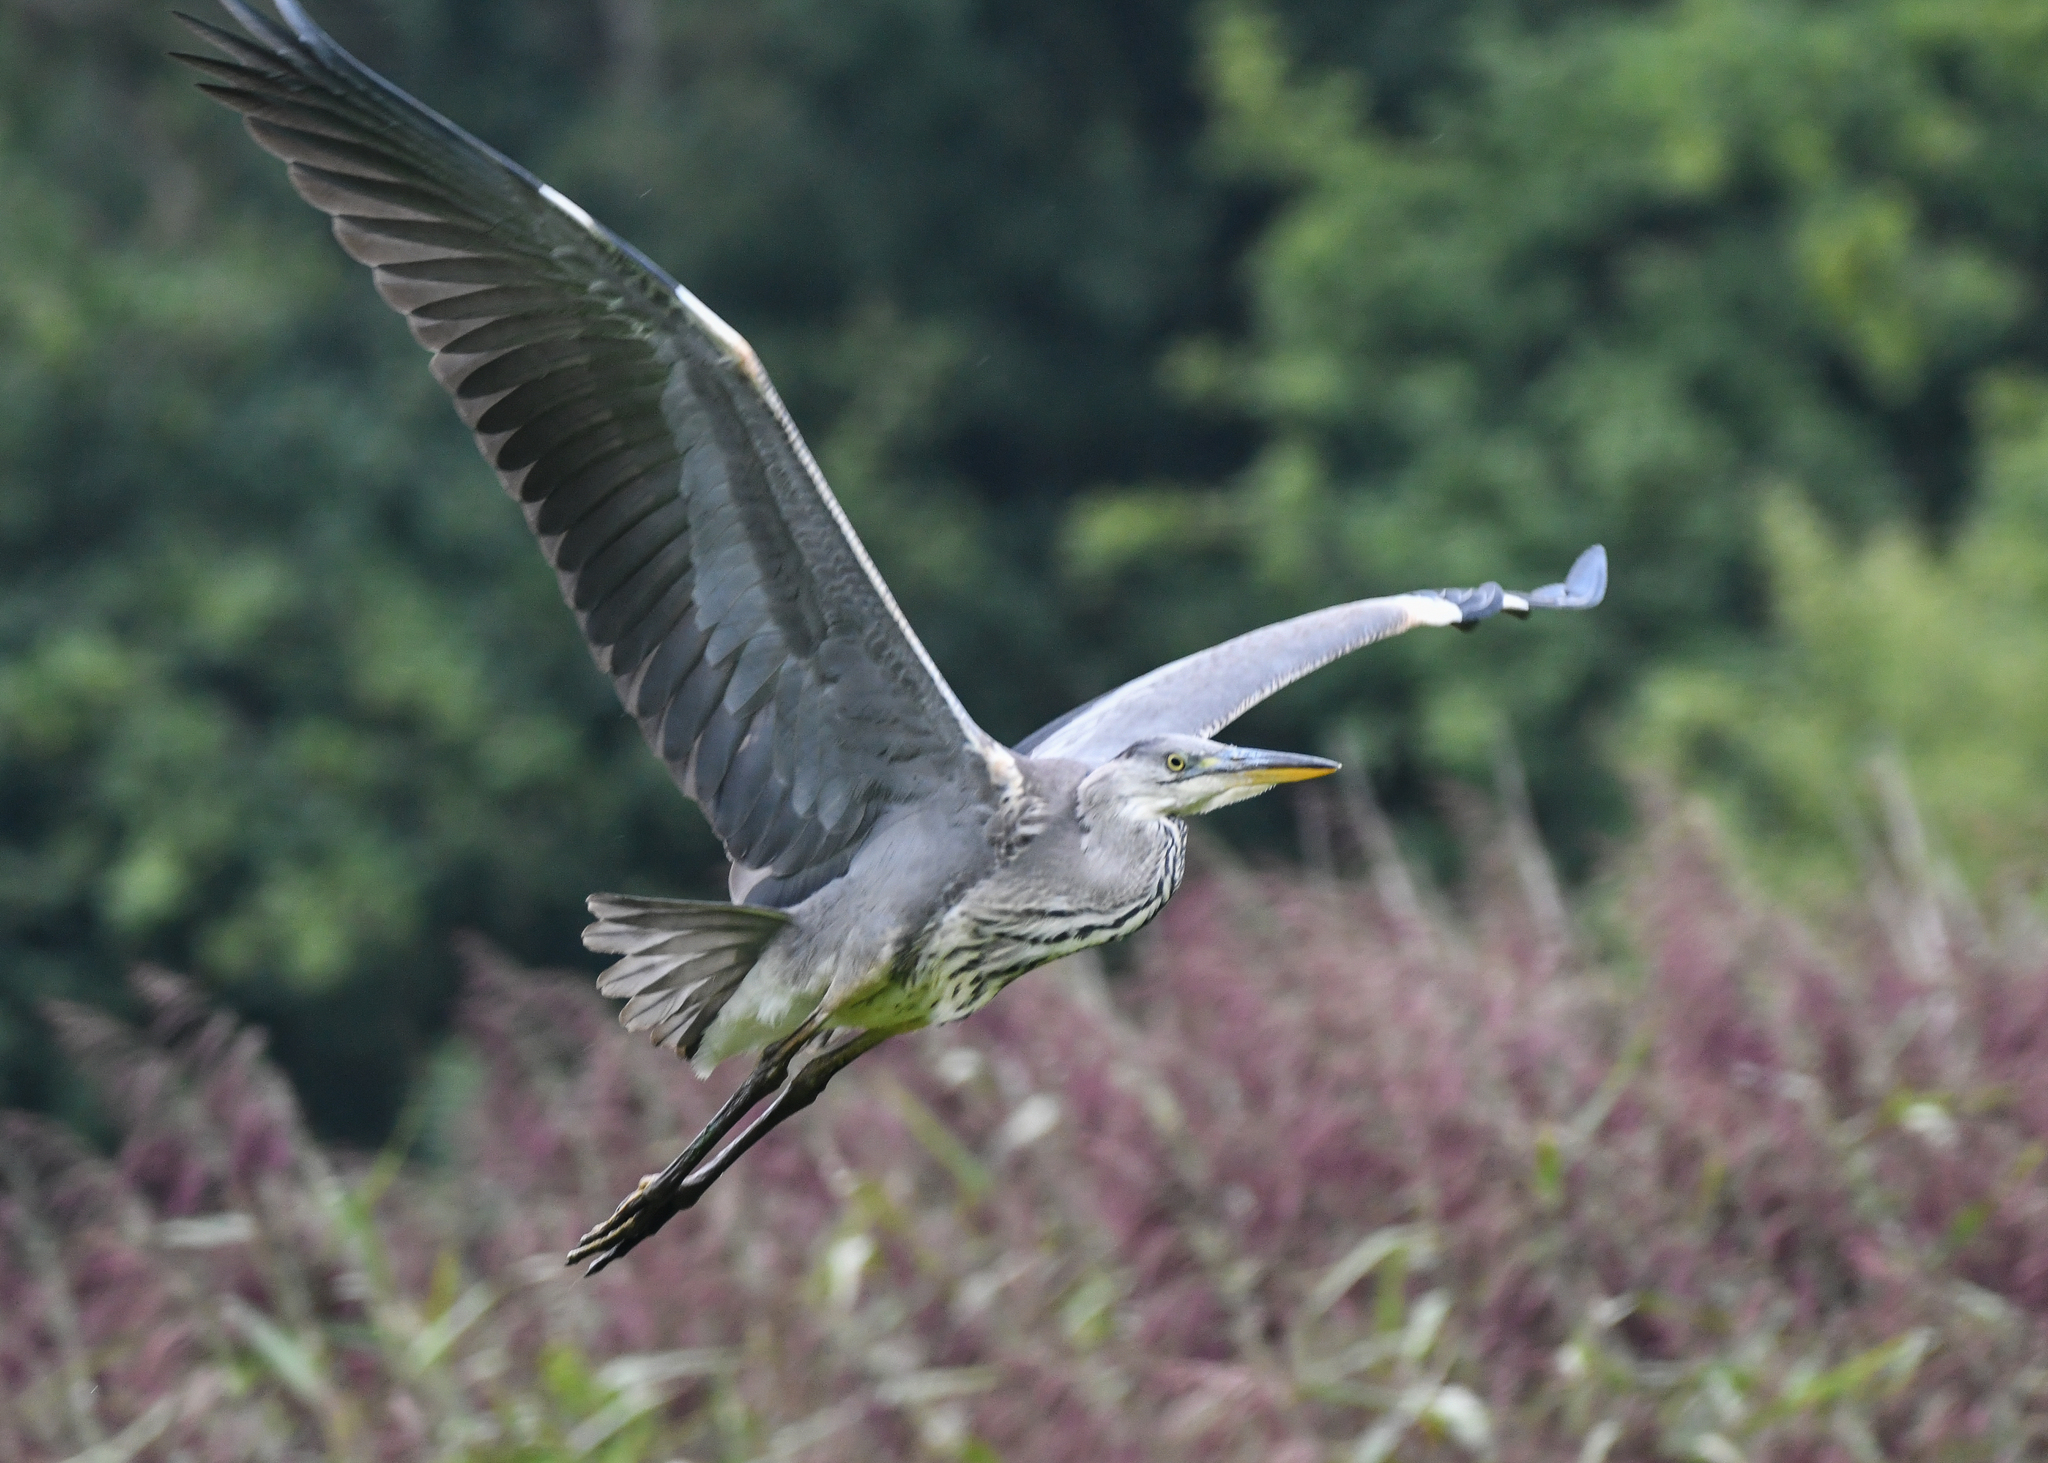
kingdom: Animalia
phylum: Chordata
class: Aves
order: Pelecaniformes
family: Ardeidae
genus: Ardea
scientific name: Ardea cinerea
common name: Grey heron
